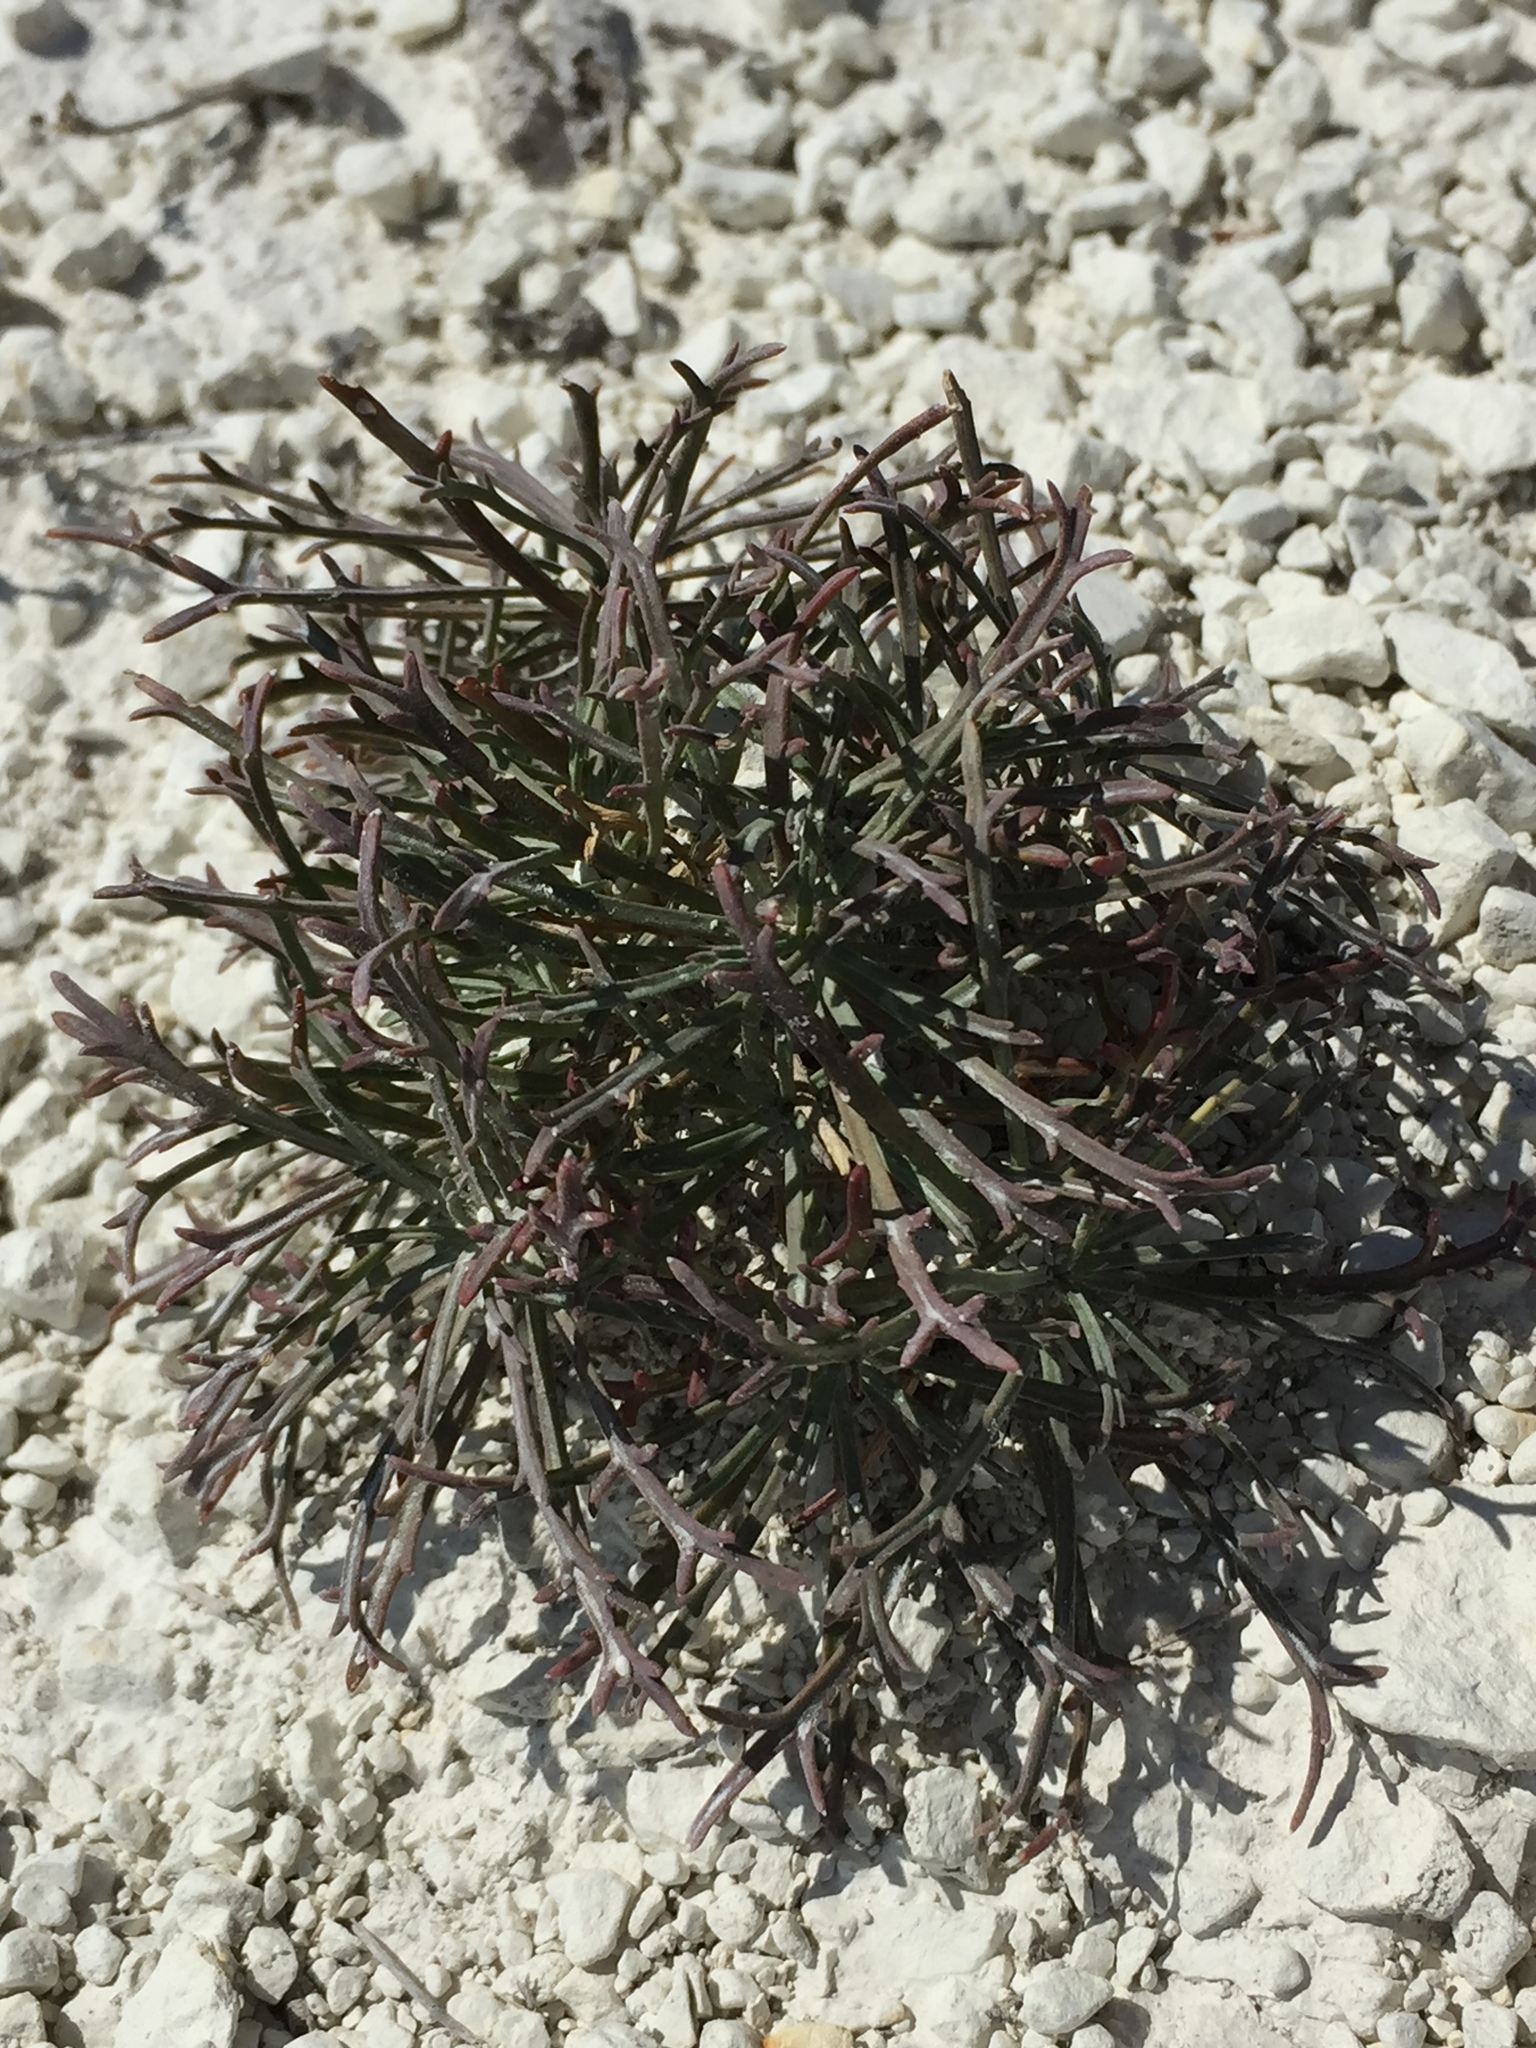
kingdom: Plantae
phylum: Tracheophyta
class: Magnoliopsida
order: Brassicales
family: Brassicaceae
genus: Lepidium
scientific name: Lepidium meyeri
